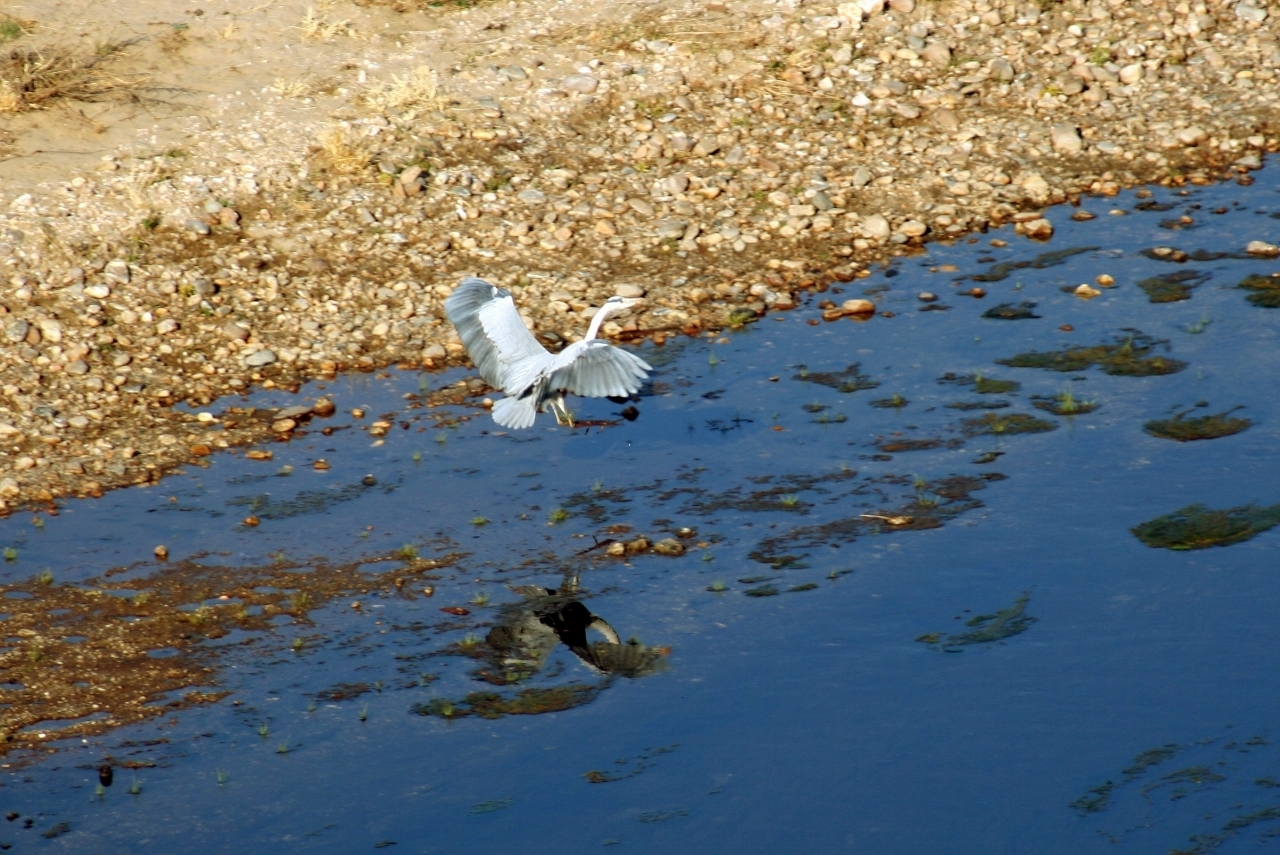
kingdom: Animalia
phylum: Chordata
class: Aves
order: Pelecaniformes
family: Ardeidae
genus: Ardea
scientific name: Ardea cinerea
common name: Grey heron
